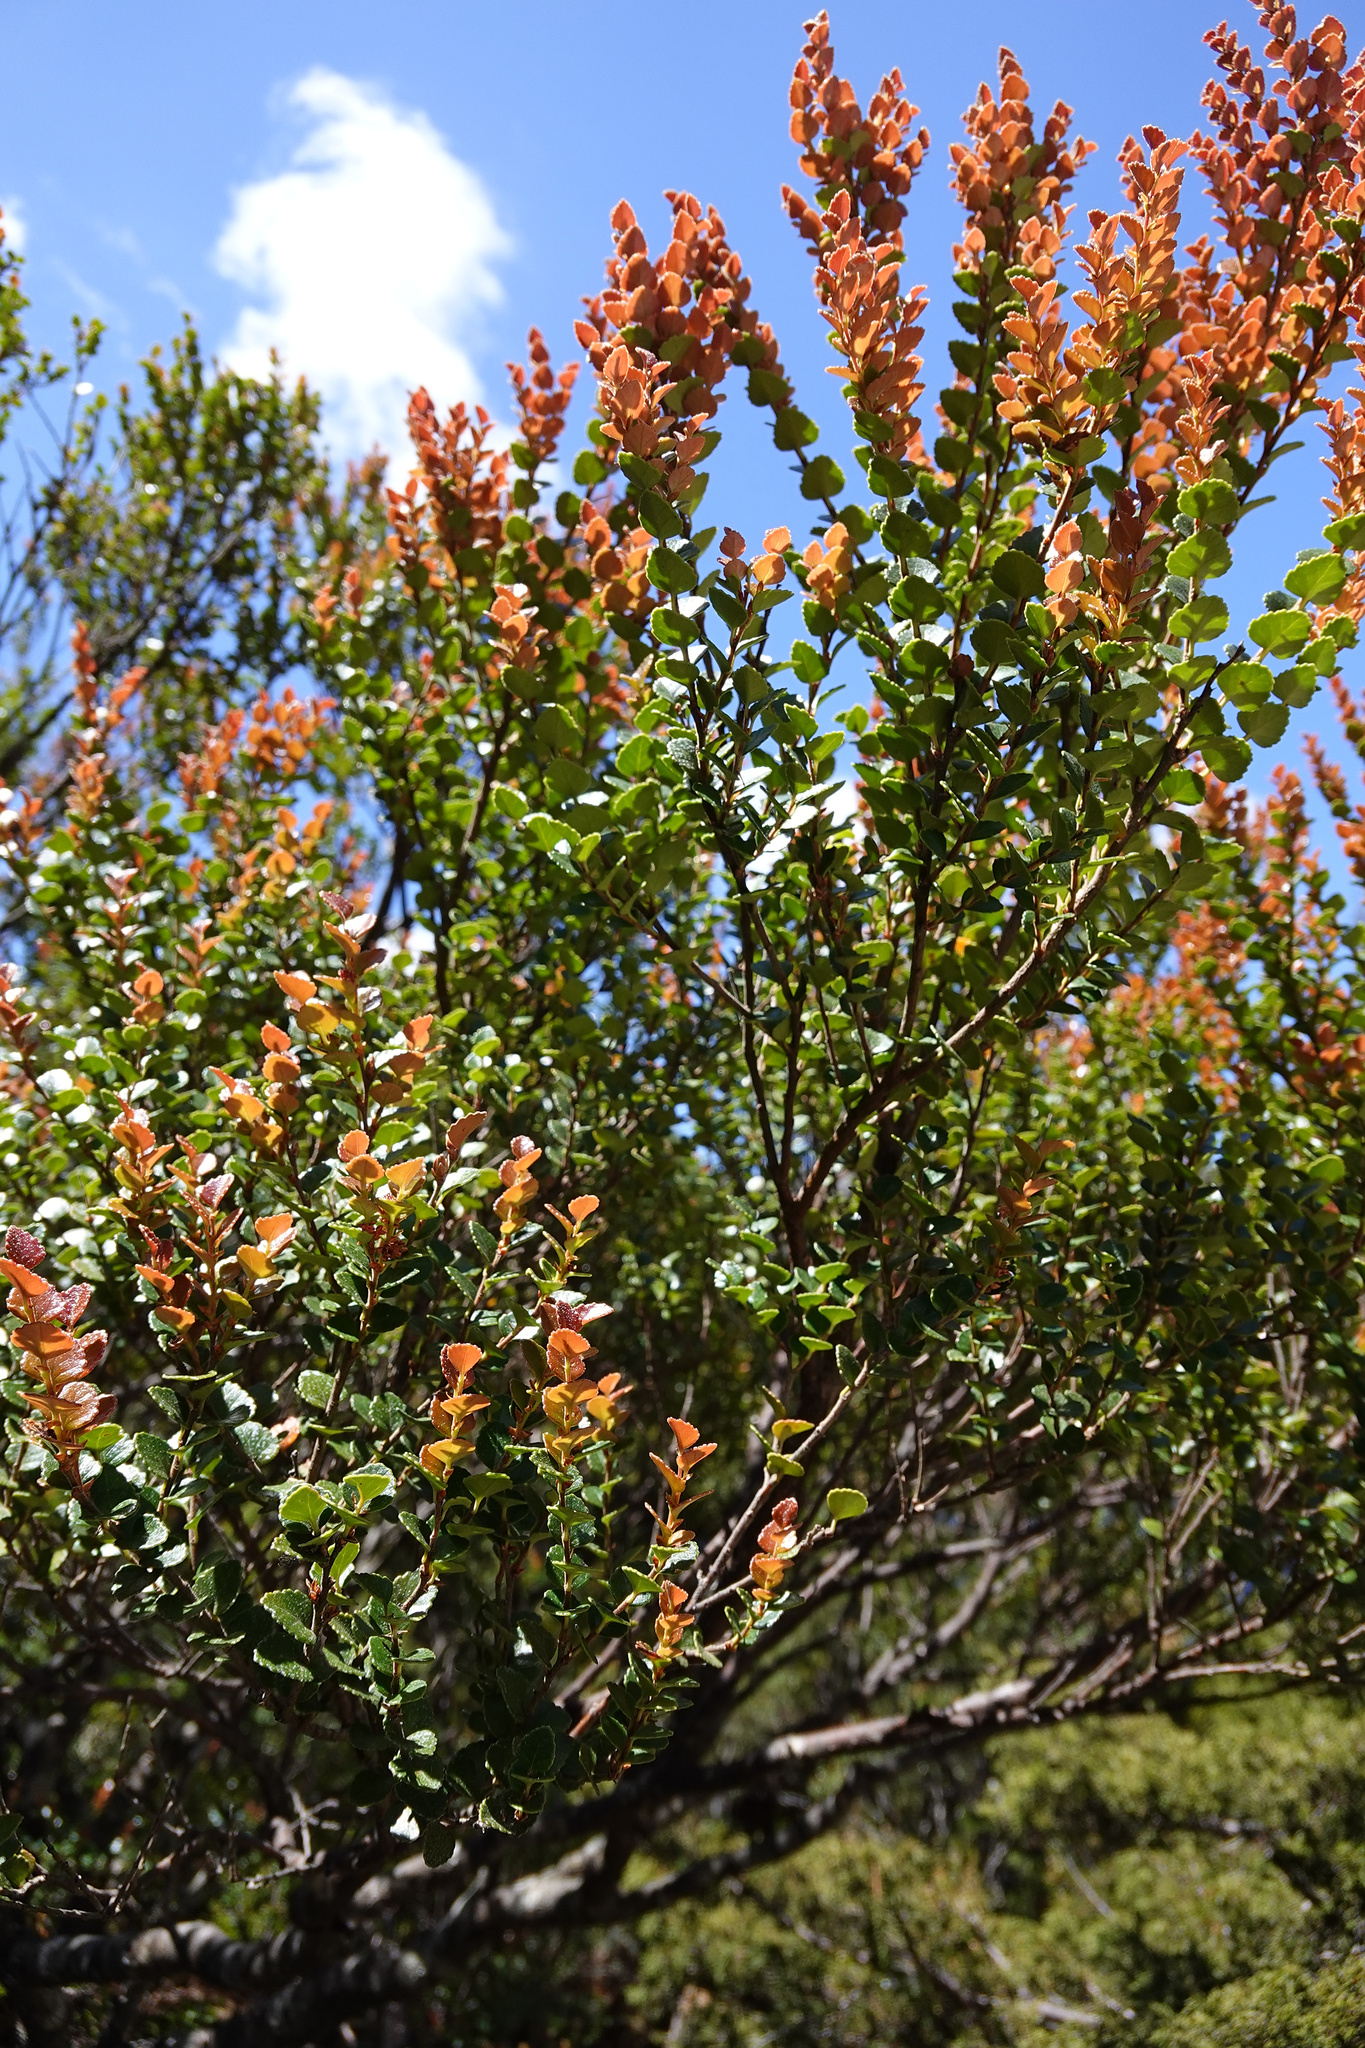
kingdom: Plantae
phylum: Tracheophyta
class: Magnoliopsida
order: Fagales
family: Nothofagaceae
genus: Nothofagus
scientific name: Nothofagus cunninghamii
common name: Myrtle beech
